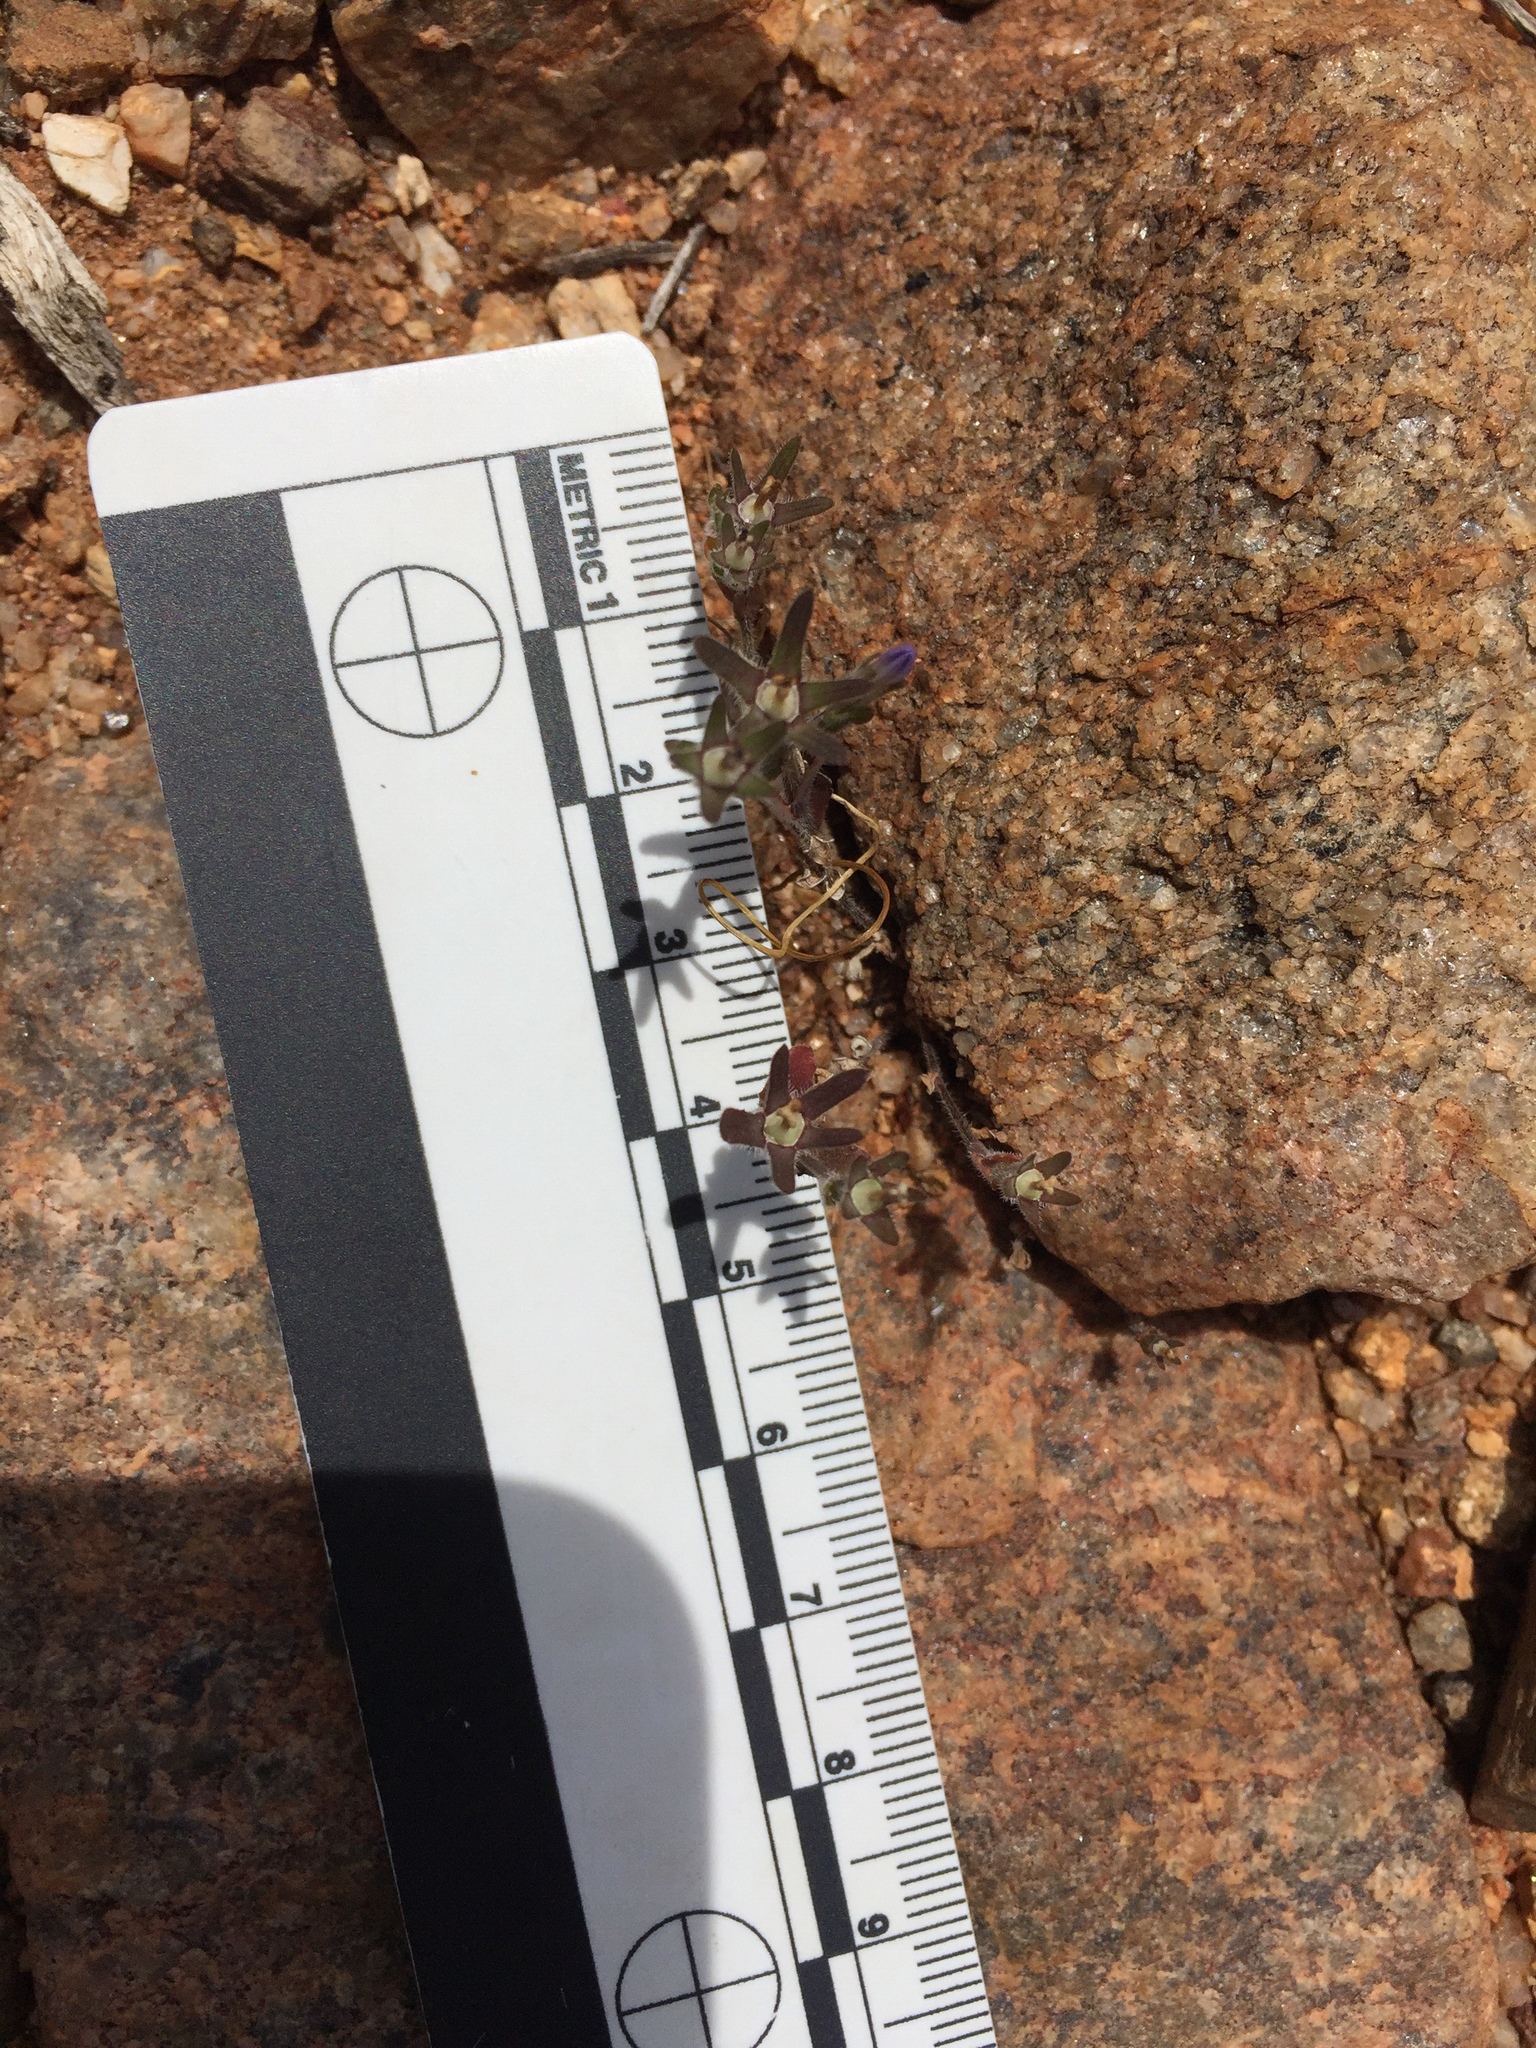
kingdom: Plantae
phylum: Tracheophyta
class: Magnoliopsida
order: Asterales
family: Campanulaceae
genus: Githopsis
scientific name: Githopsis diffusa
